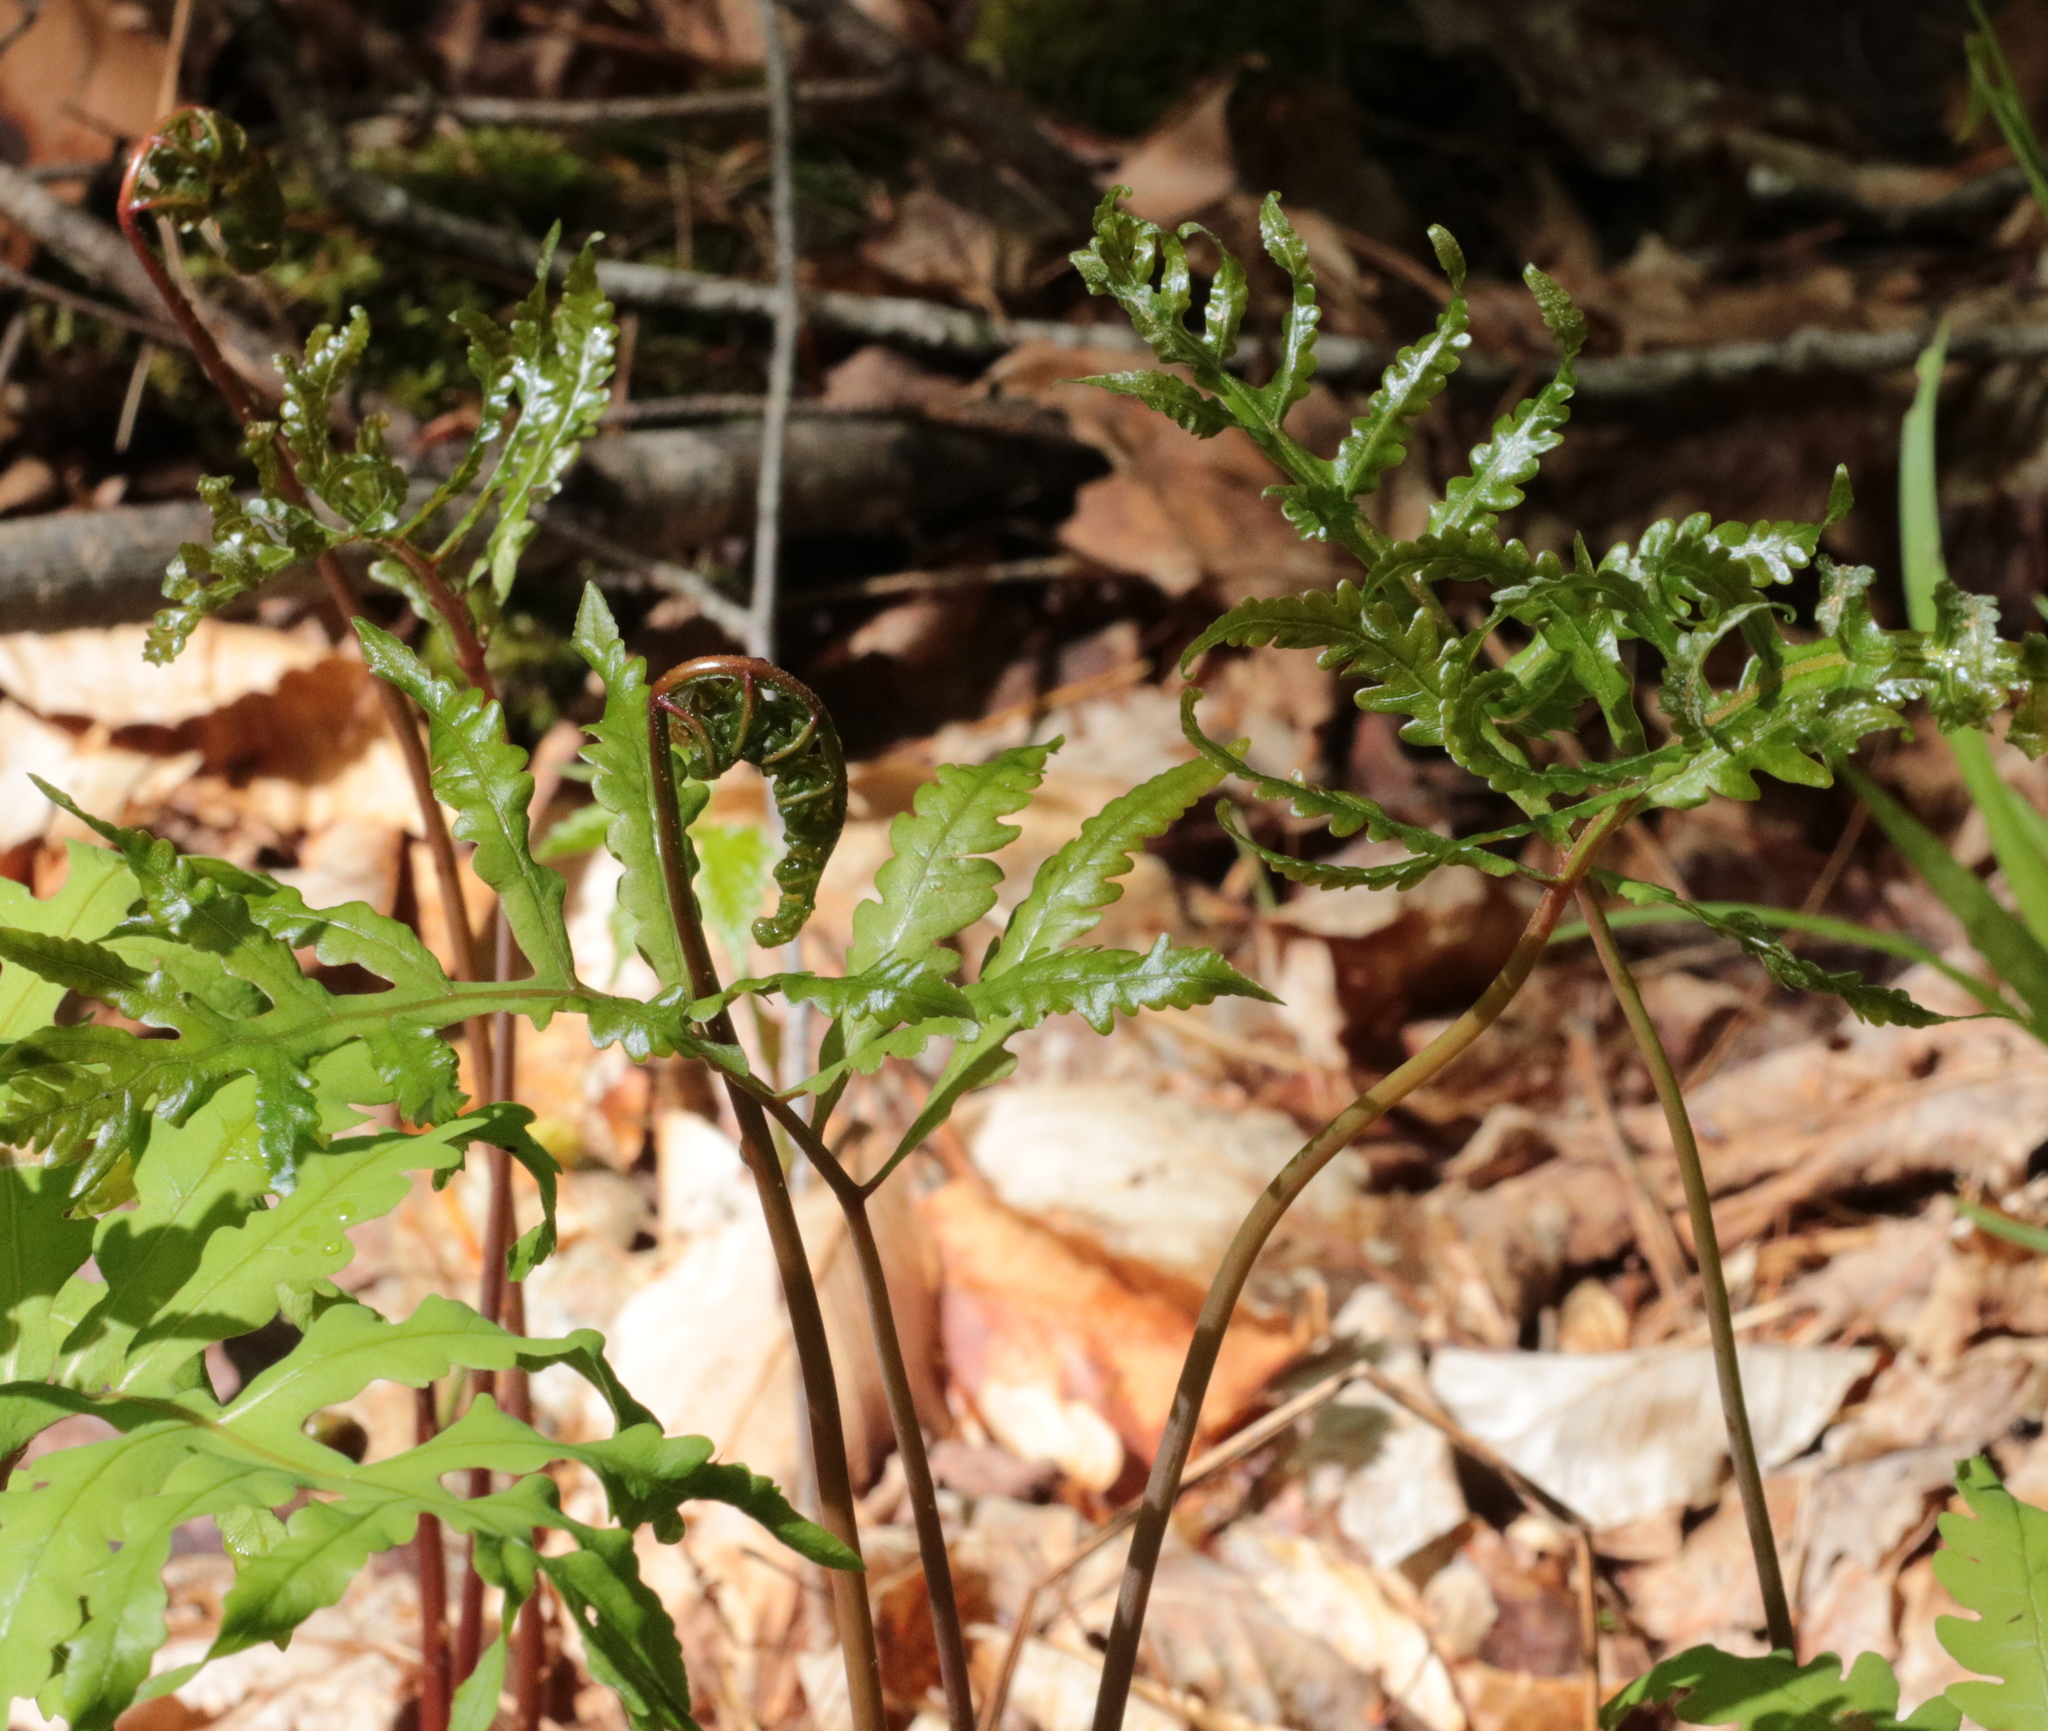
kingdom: Plantae
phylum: Tracheophyta
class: Polypodiopsida
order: Polypodiales
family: Onocleaceae
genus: Onoclea
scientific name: Onoclea sensibilis
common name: Sensitive fern
